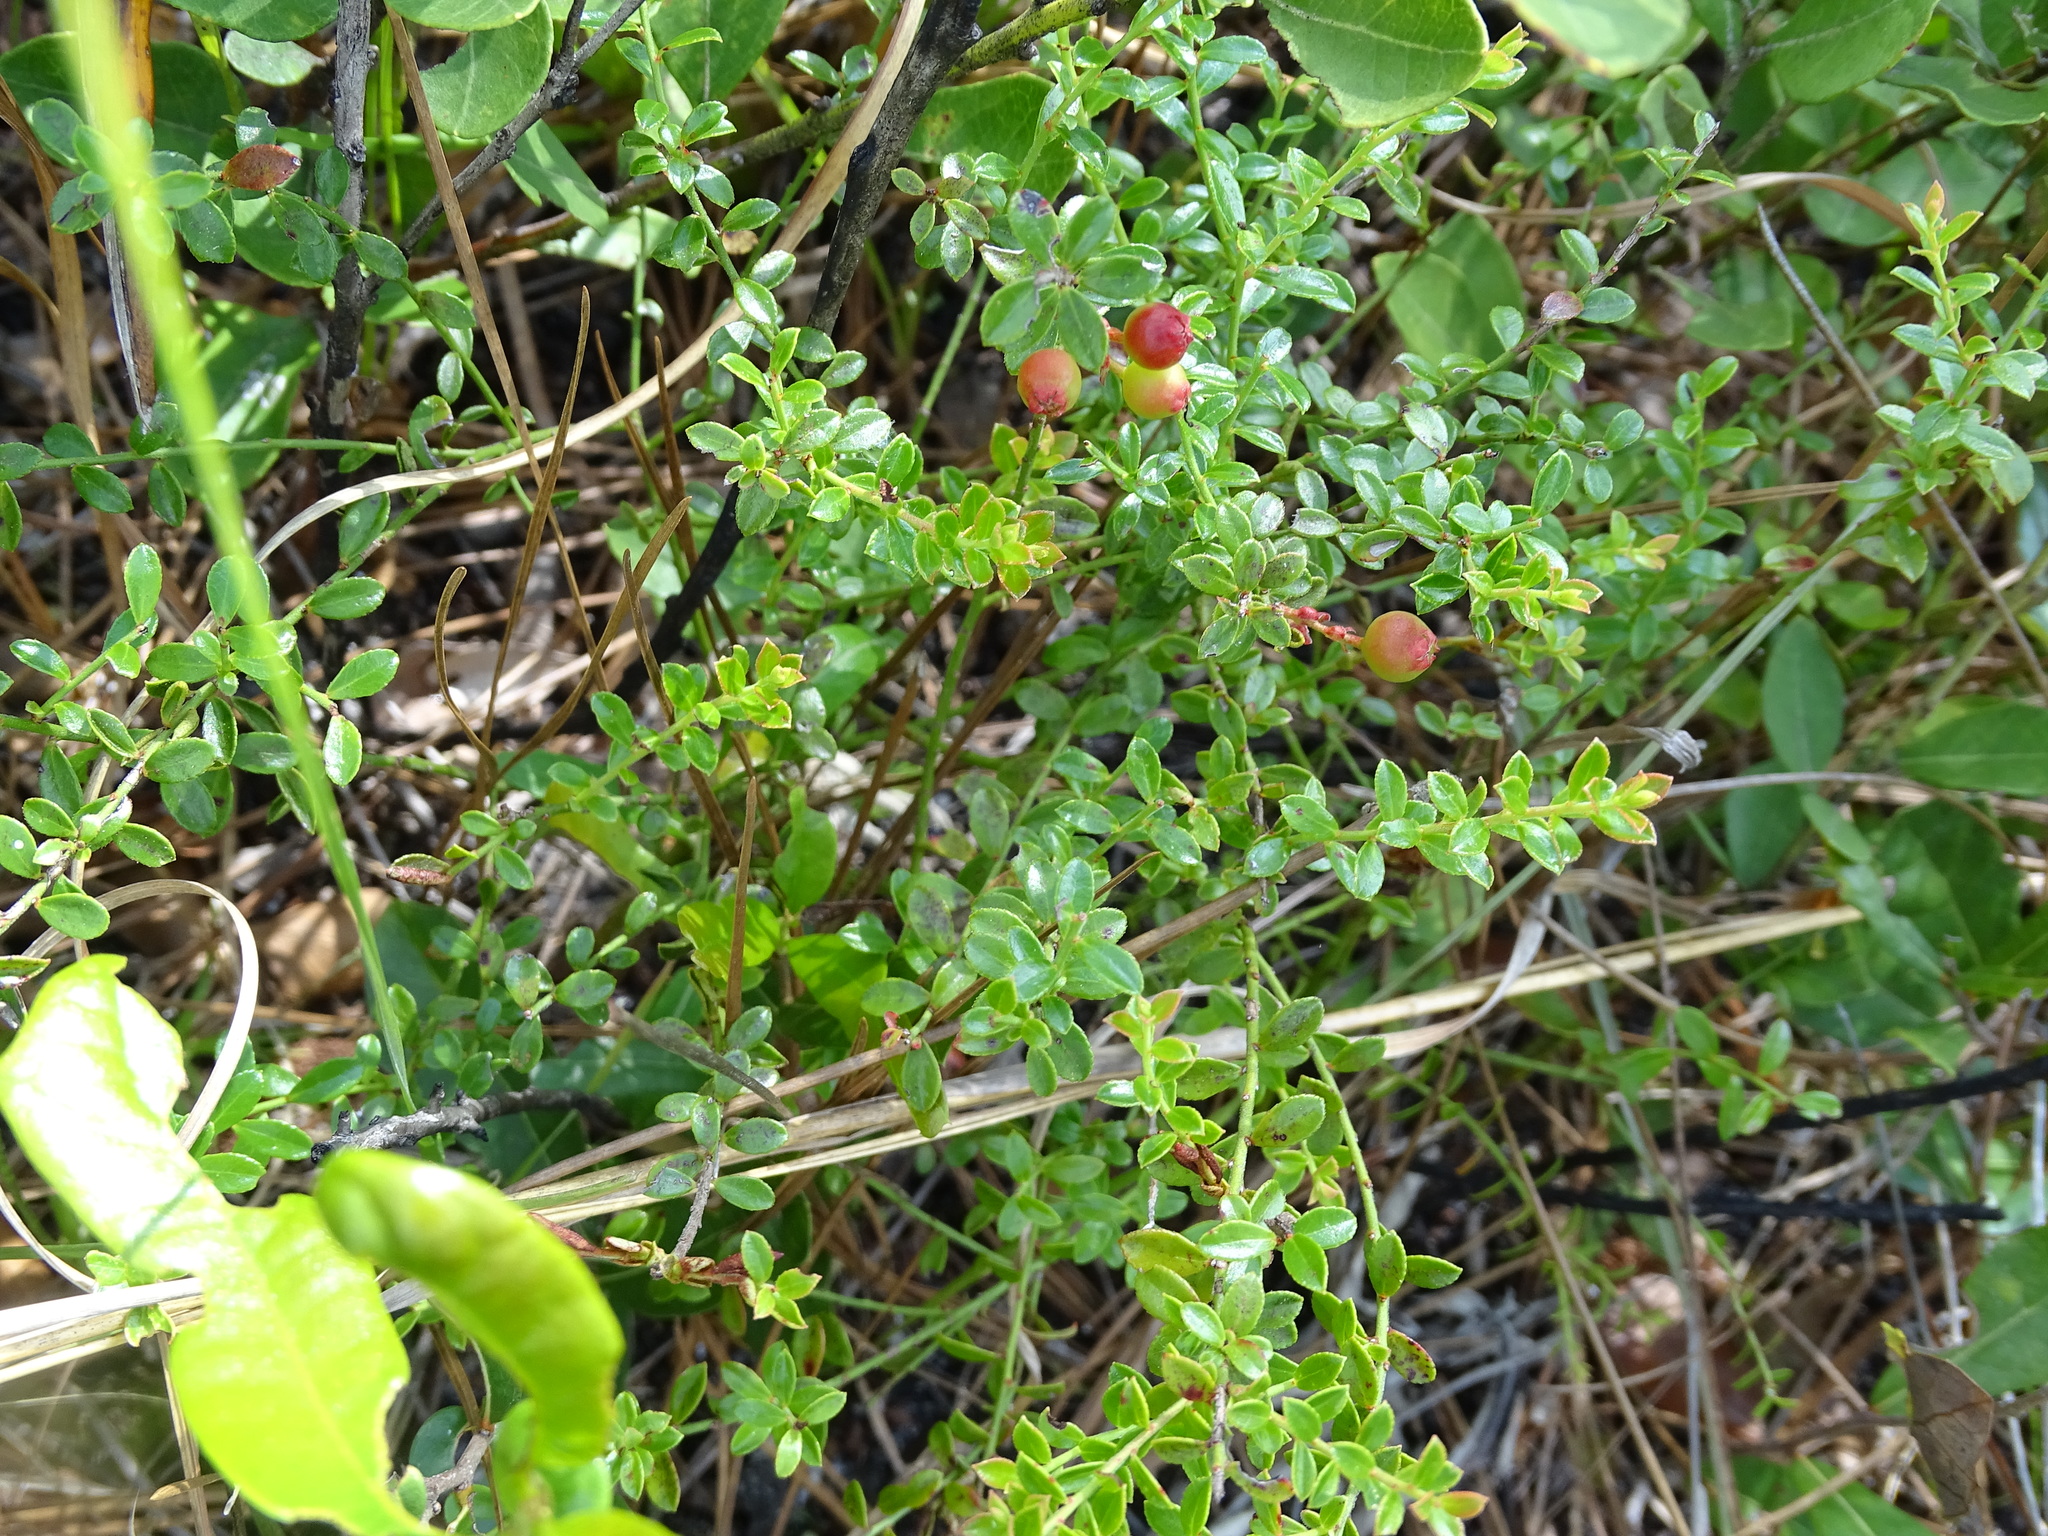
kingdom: Plantae
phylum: Tracheophyta
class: Magnoliopsida
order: Ericales
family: Ericaceae
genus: Vaccinium
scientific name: Vaccinium myrsinites
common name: Evergreen blueberry
